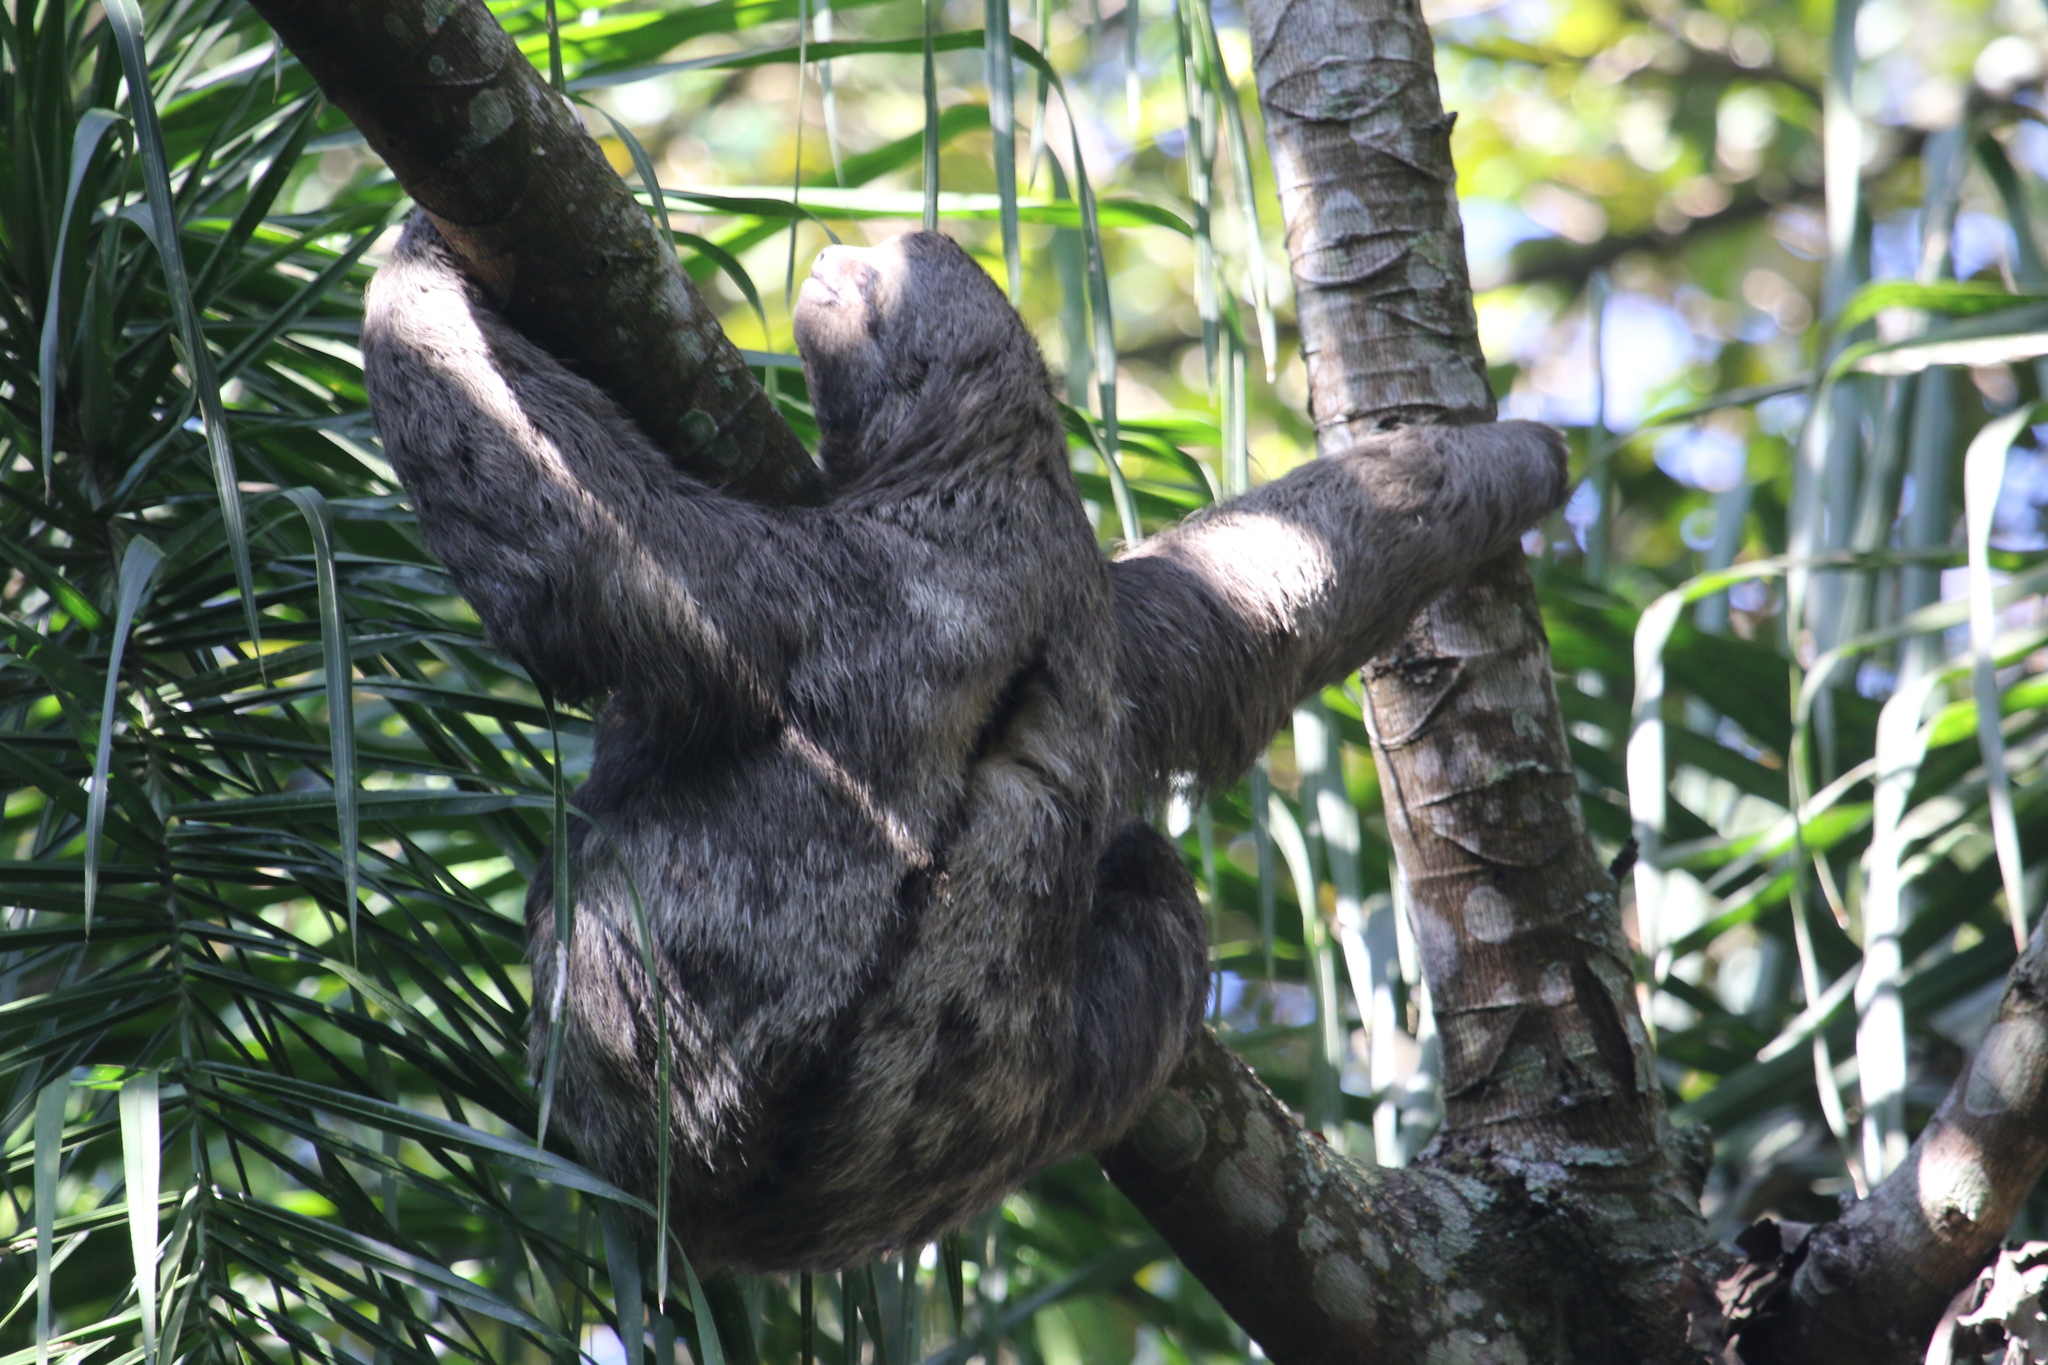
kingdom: Animalia
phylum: Chordata
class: Mammalia
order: Pilosa
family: Bradypodidae
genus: Bradypus
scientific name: Bradypus variegatus
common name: Brown-throated three-toed sloth
